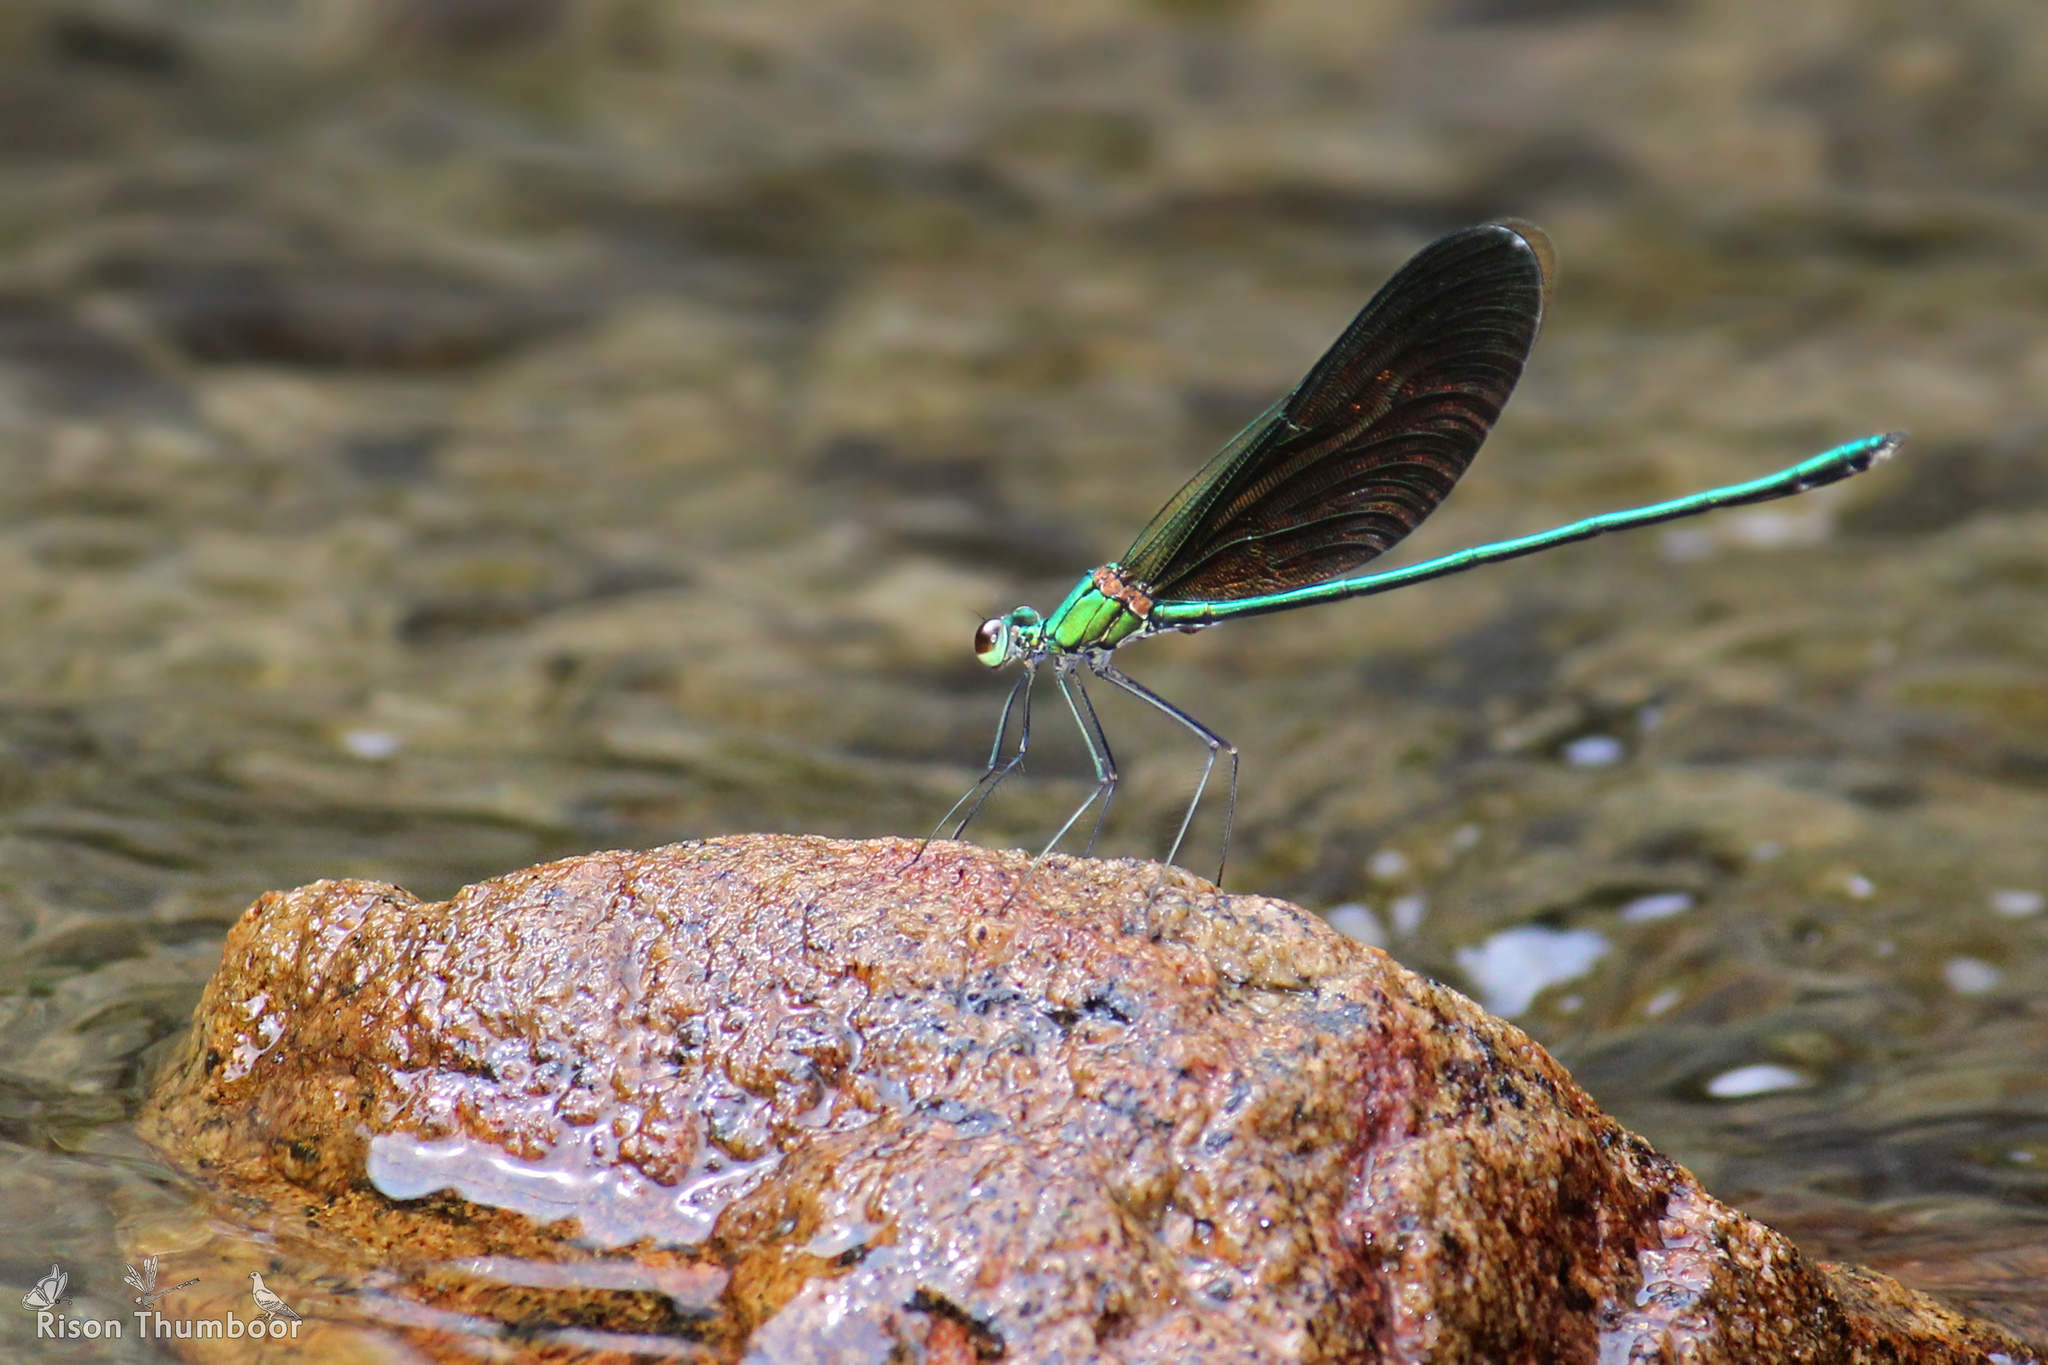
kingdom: Animalia
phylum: Arthropoda
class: Insecta
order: Odonata
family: Calopterygidae
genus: Neurobasis
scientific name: Neurobasis chinensis
